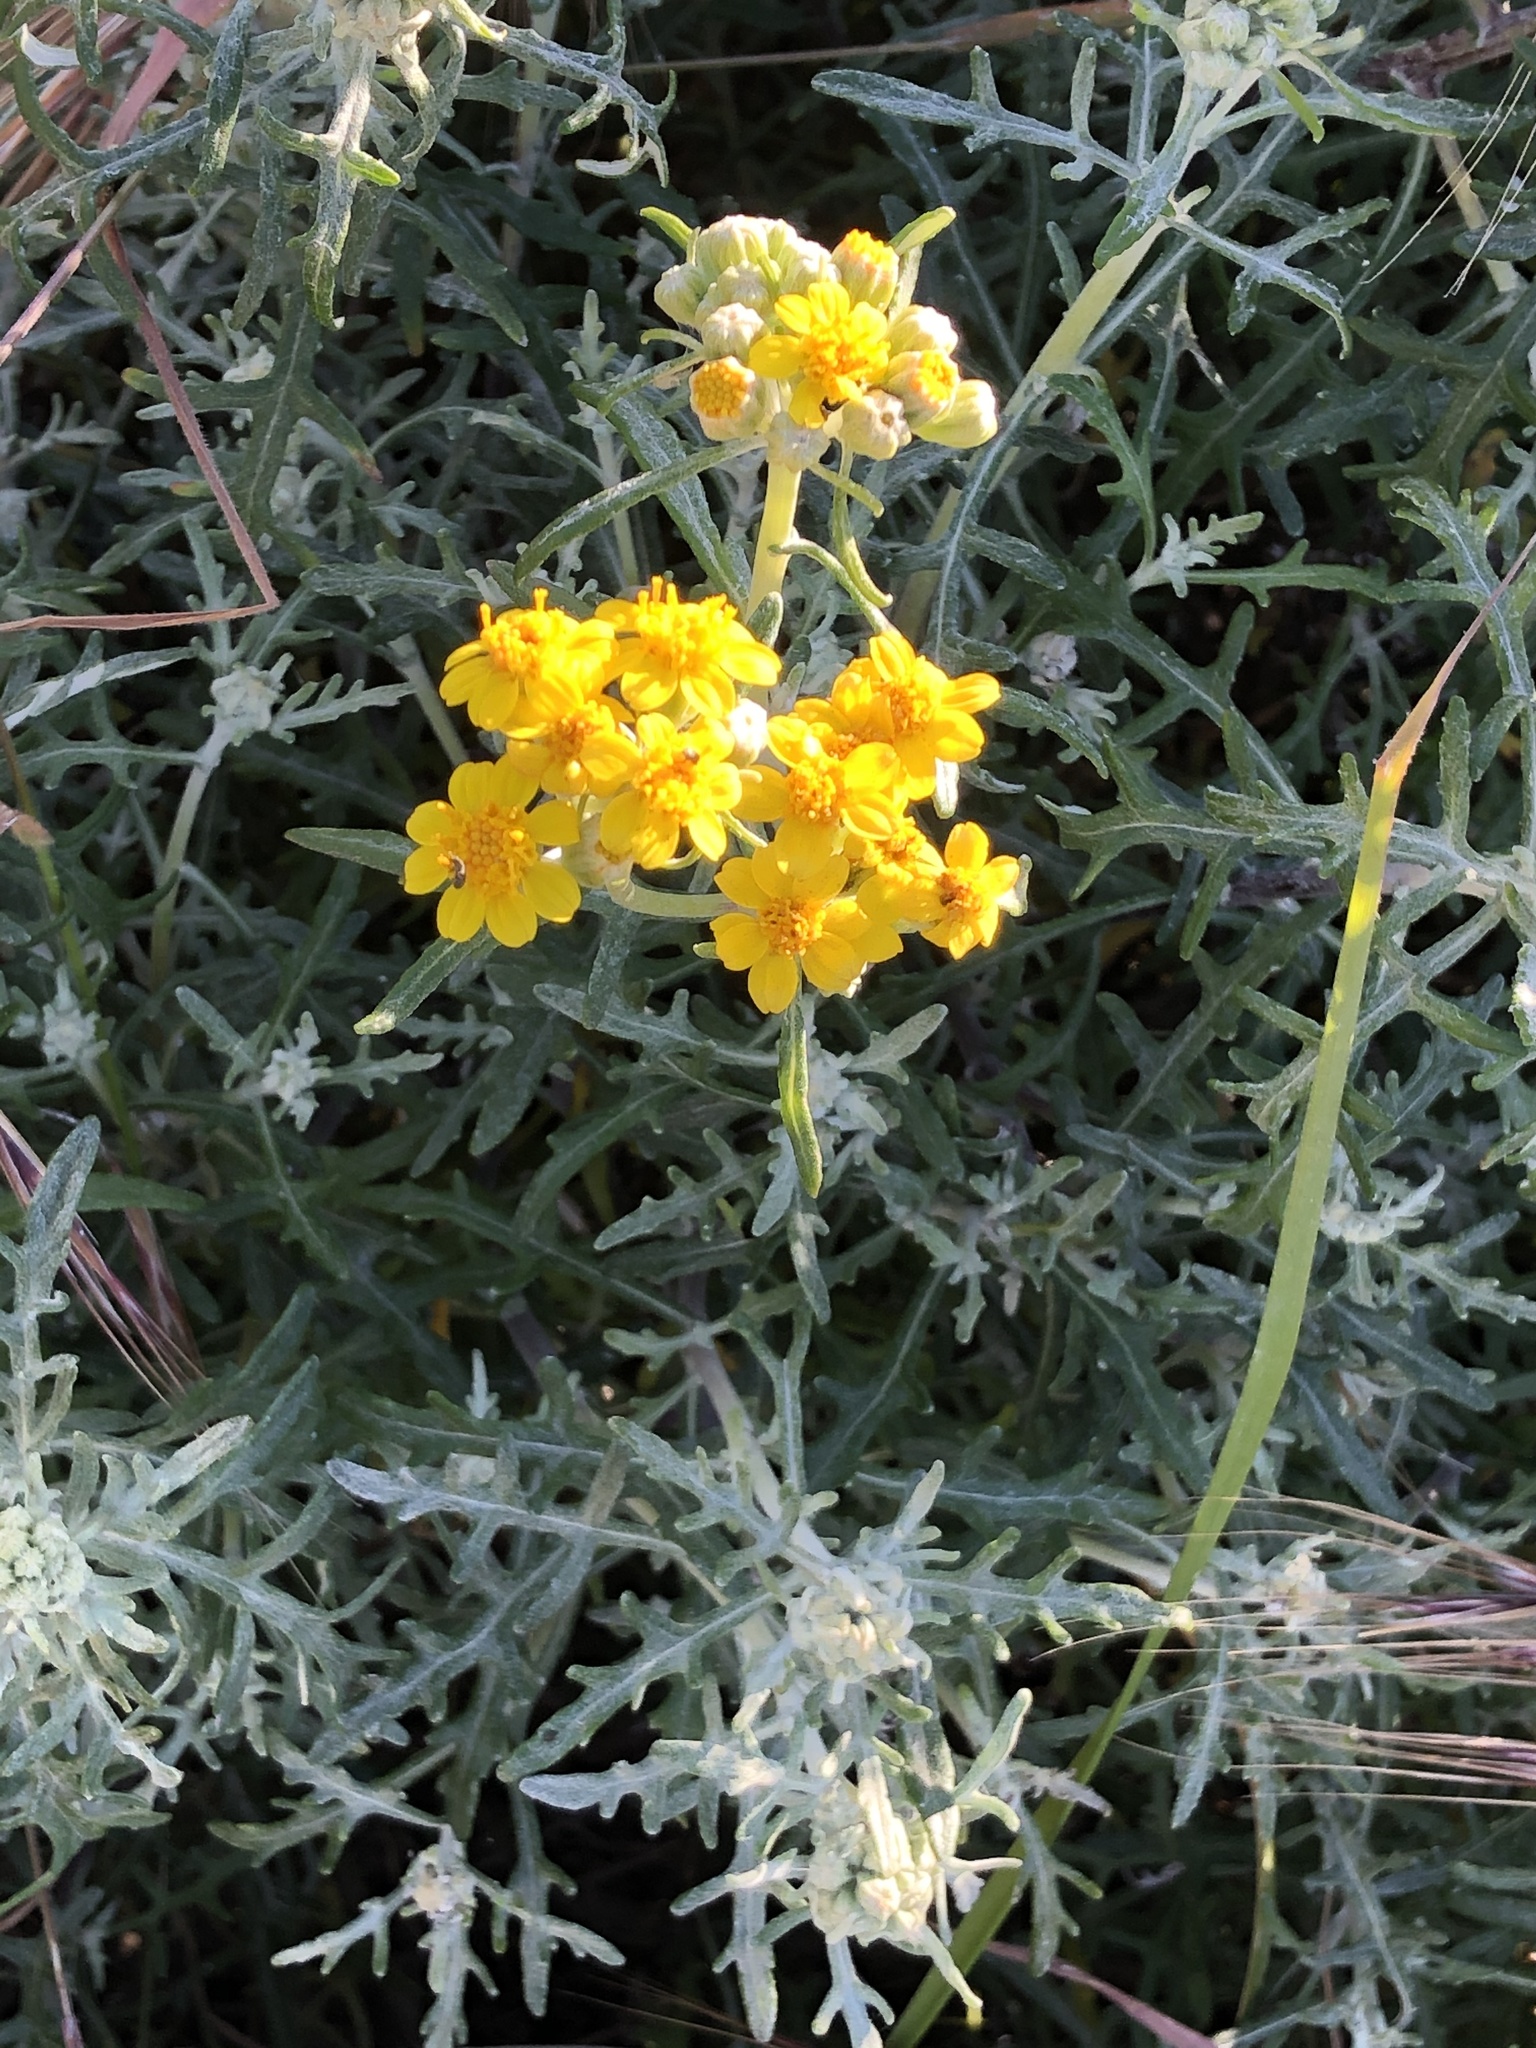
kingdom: Plantae
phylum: Tracheophyta
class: Magnoliopsida
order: Asterales
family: Asteraceae
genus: Eriophyllum
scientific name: Eriophyllum staechadifolium
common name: Lizardtail
